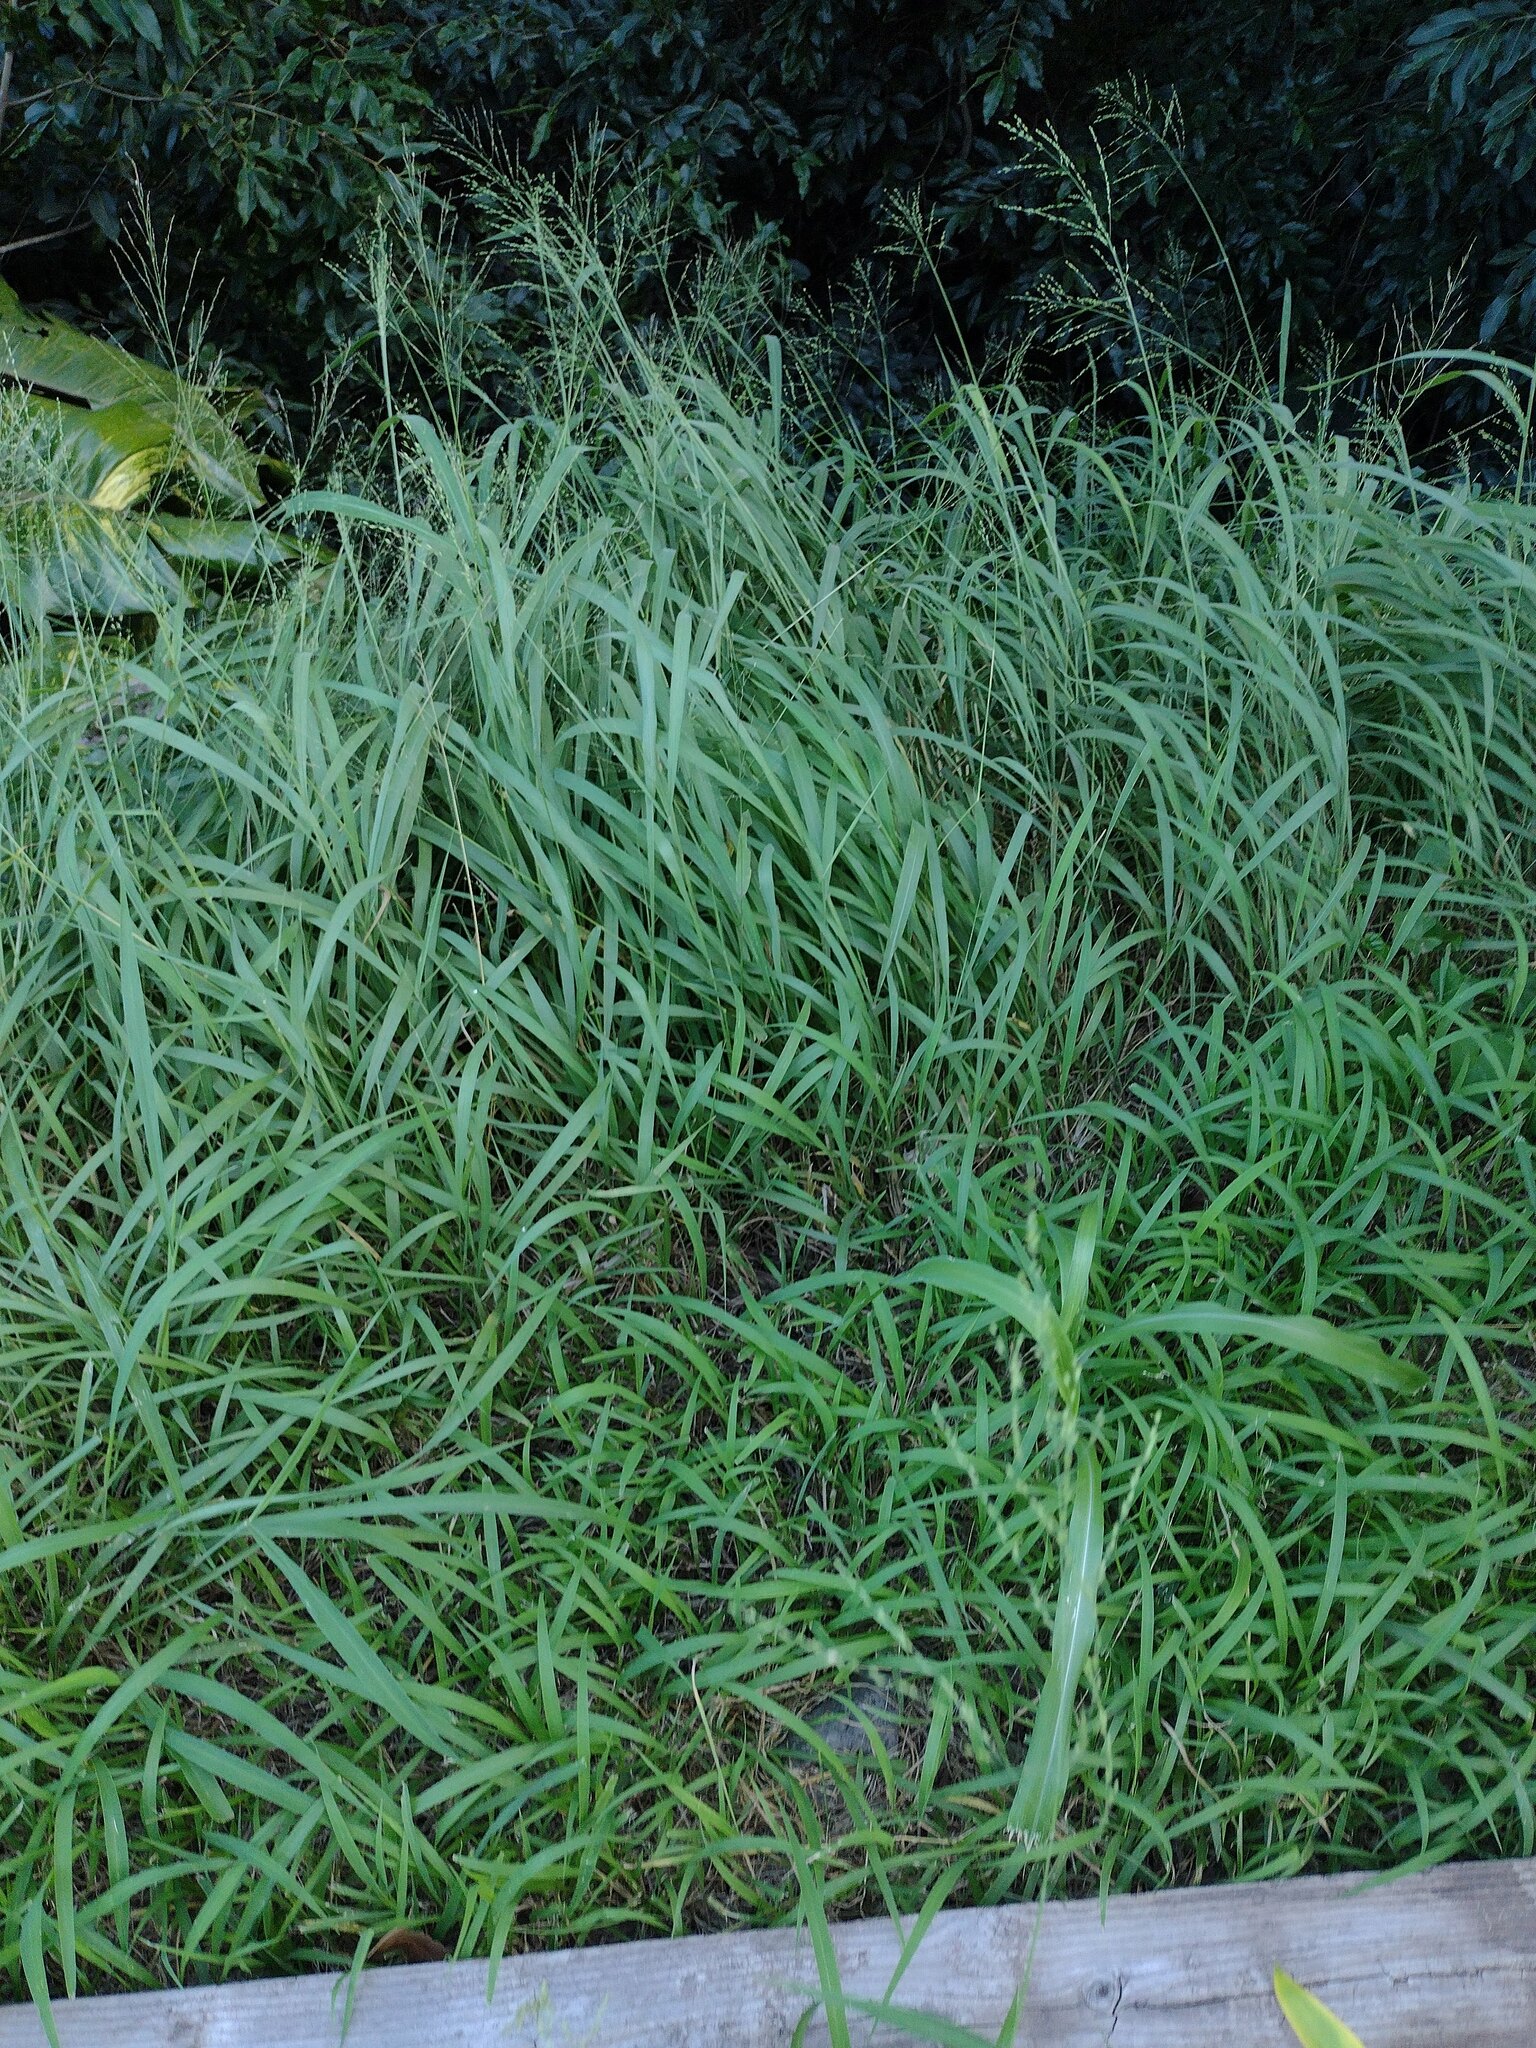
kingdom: Plantae
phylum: Tracheophyta
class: Liliopsida
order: Poales
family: Poaceae
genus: Megathyrsus
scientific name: Megathyrsus maximus
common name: Guineagrass
